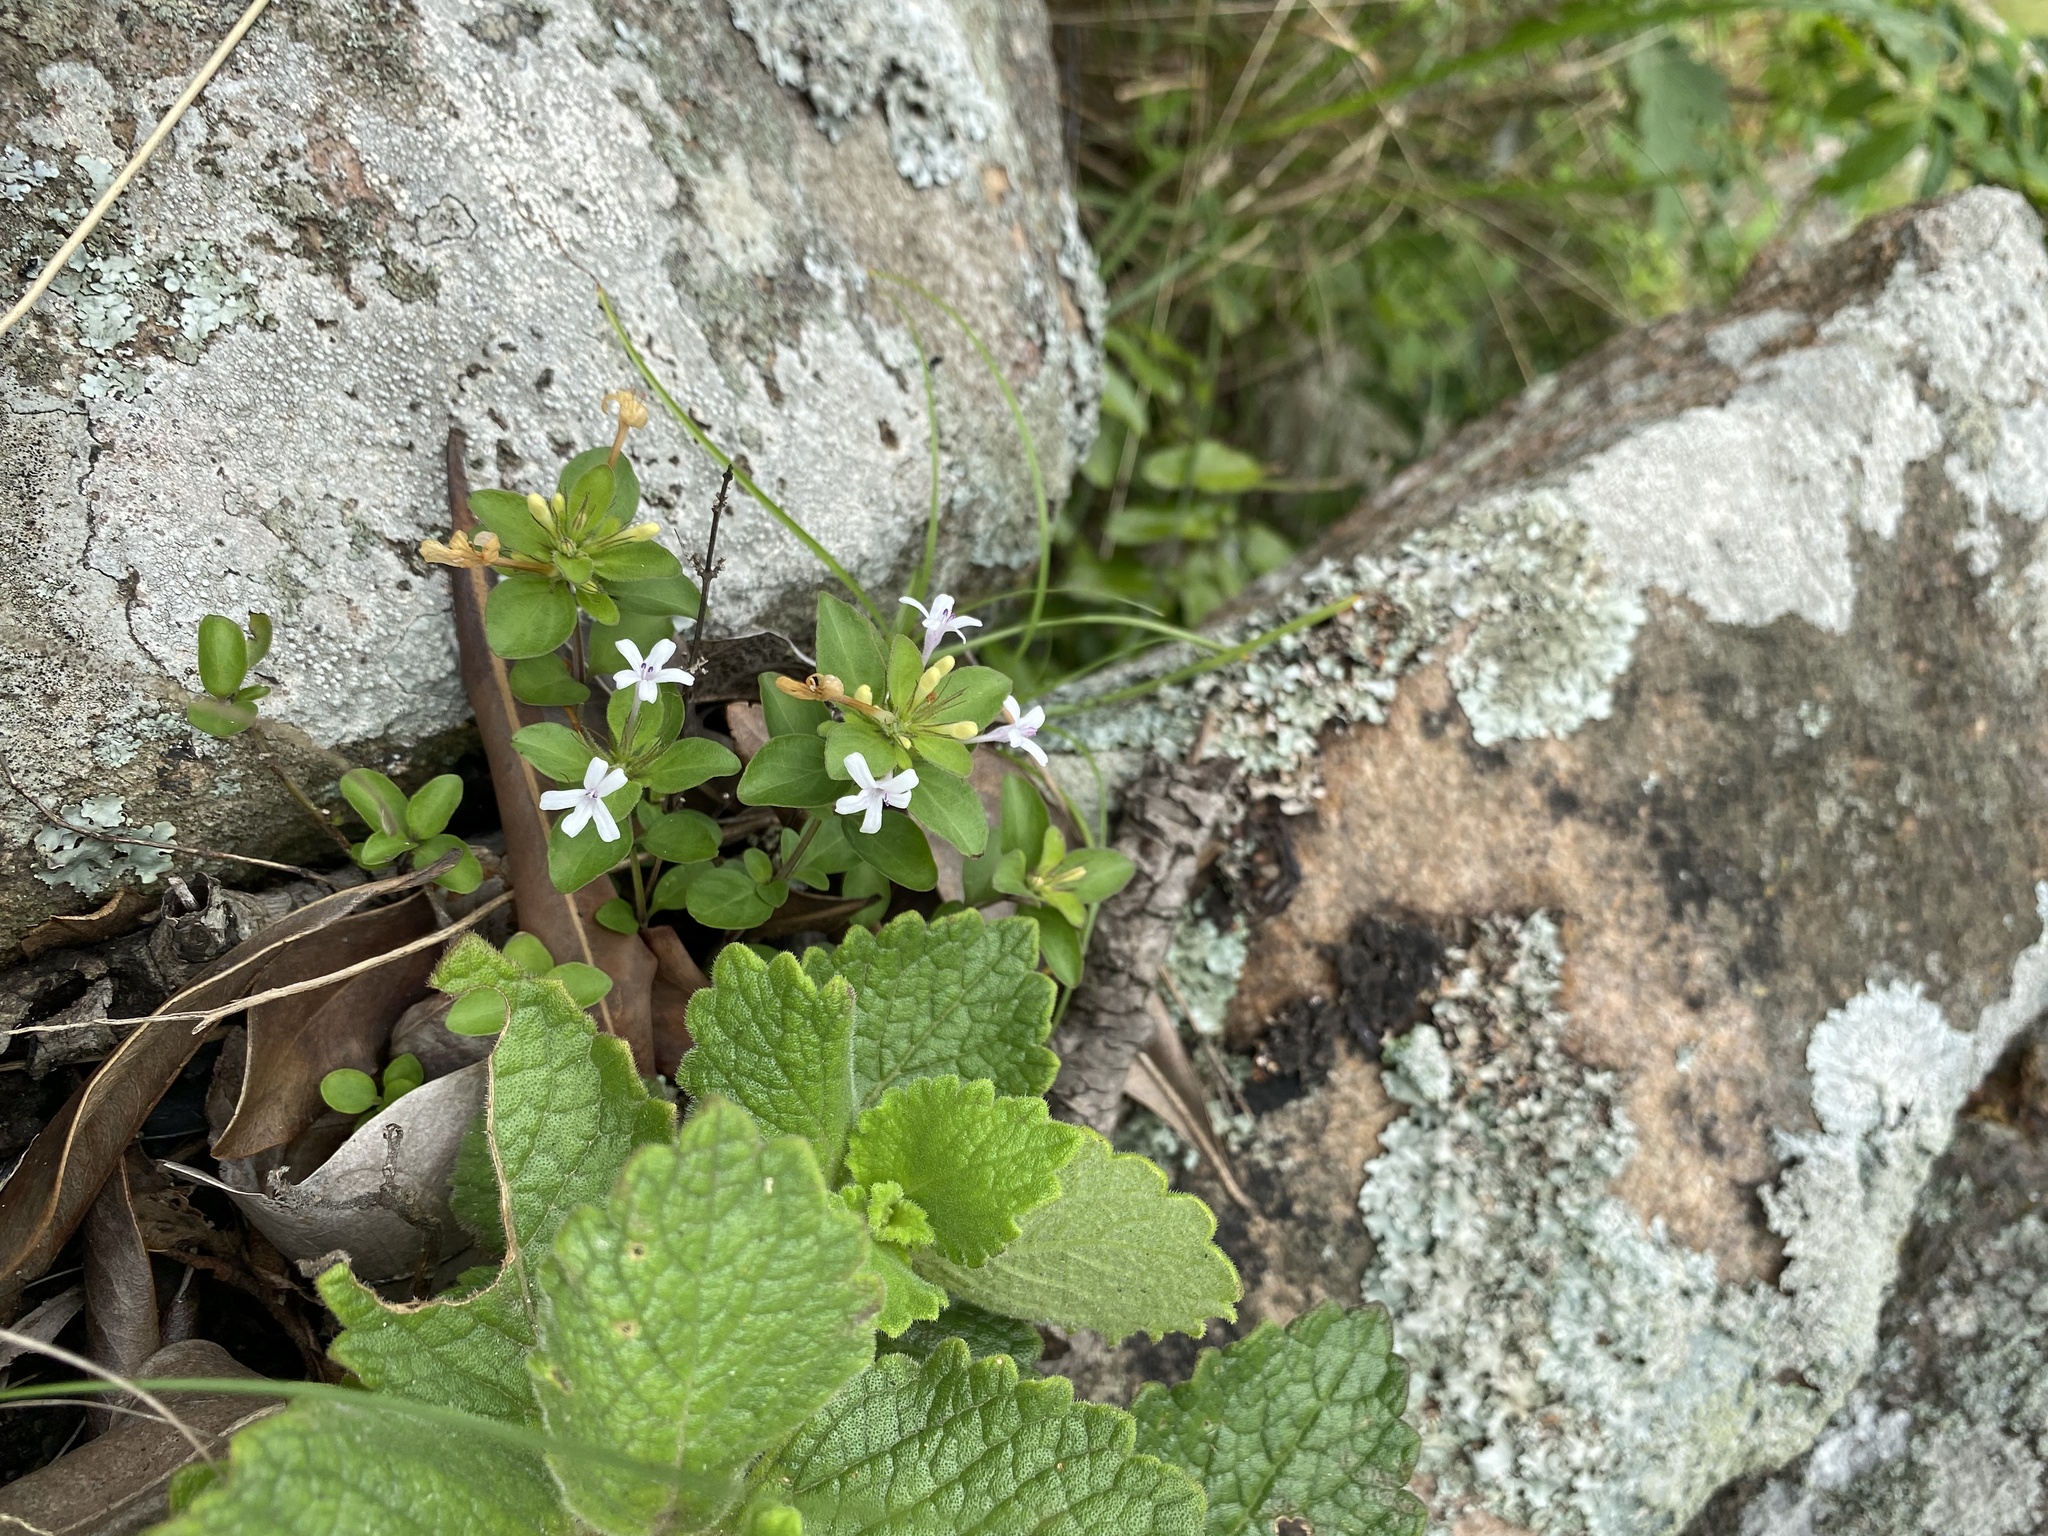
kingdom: Plantae
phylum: Tracheophyta
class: Magnoliopsida
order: Lamiales
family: Acanthaceae
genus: Dyschoriste
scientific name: Dyschoriste setigera
